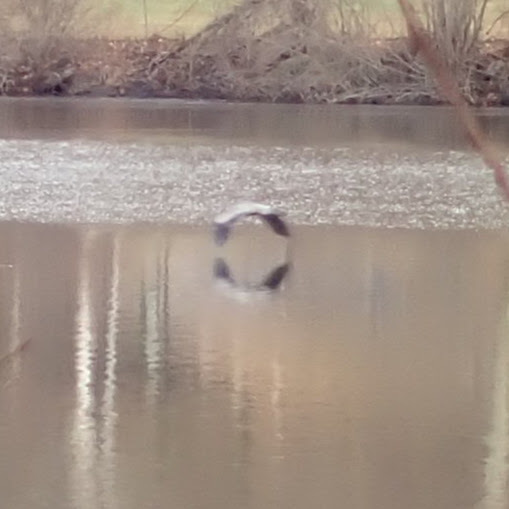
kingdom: Animalia
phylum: Chordata
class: Aves
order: Pelecaniformes
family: Ardeidae
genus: Ardea
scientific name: Ardea herodias
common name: Great blue heron
